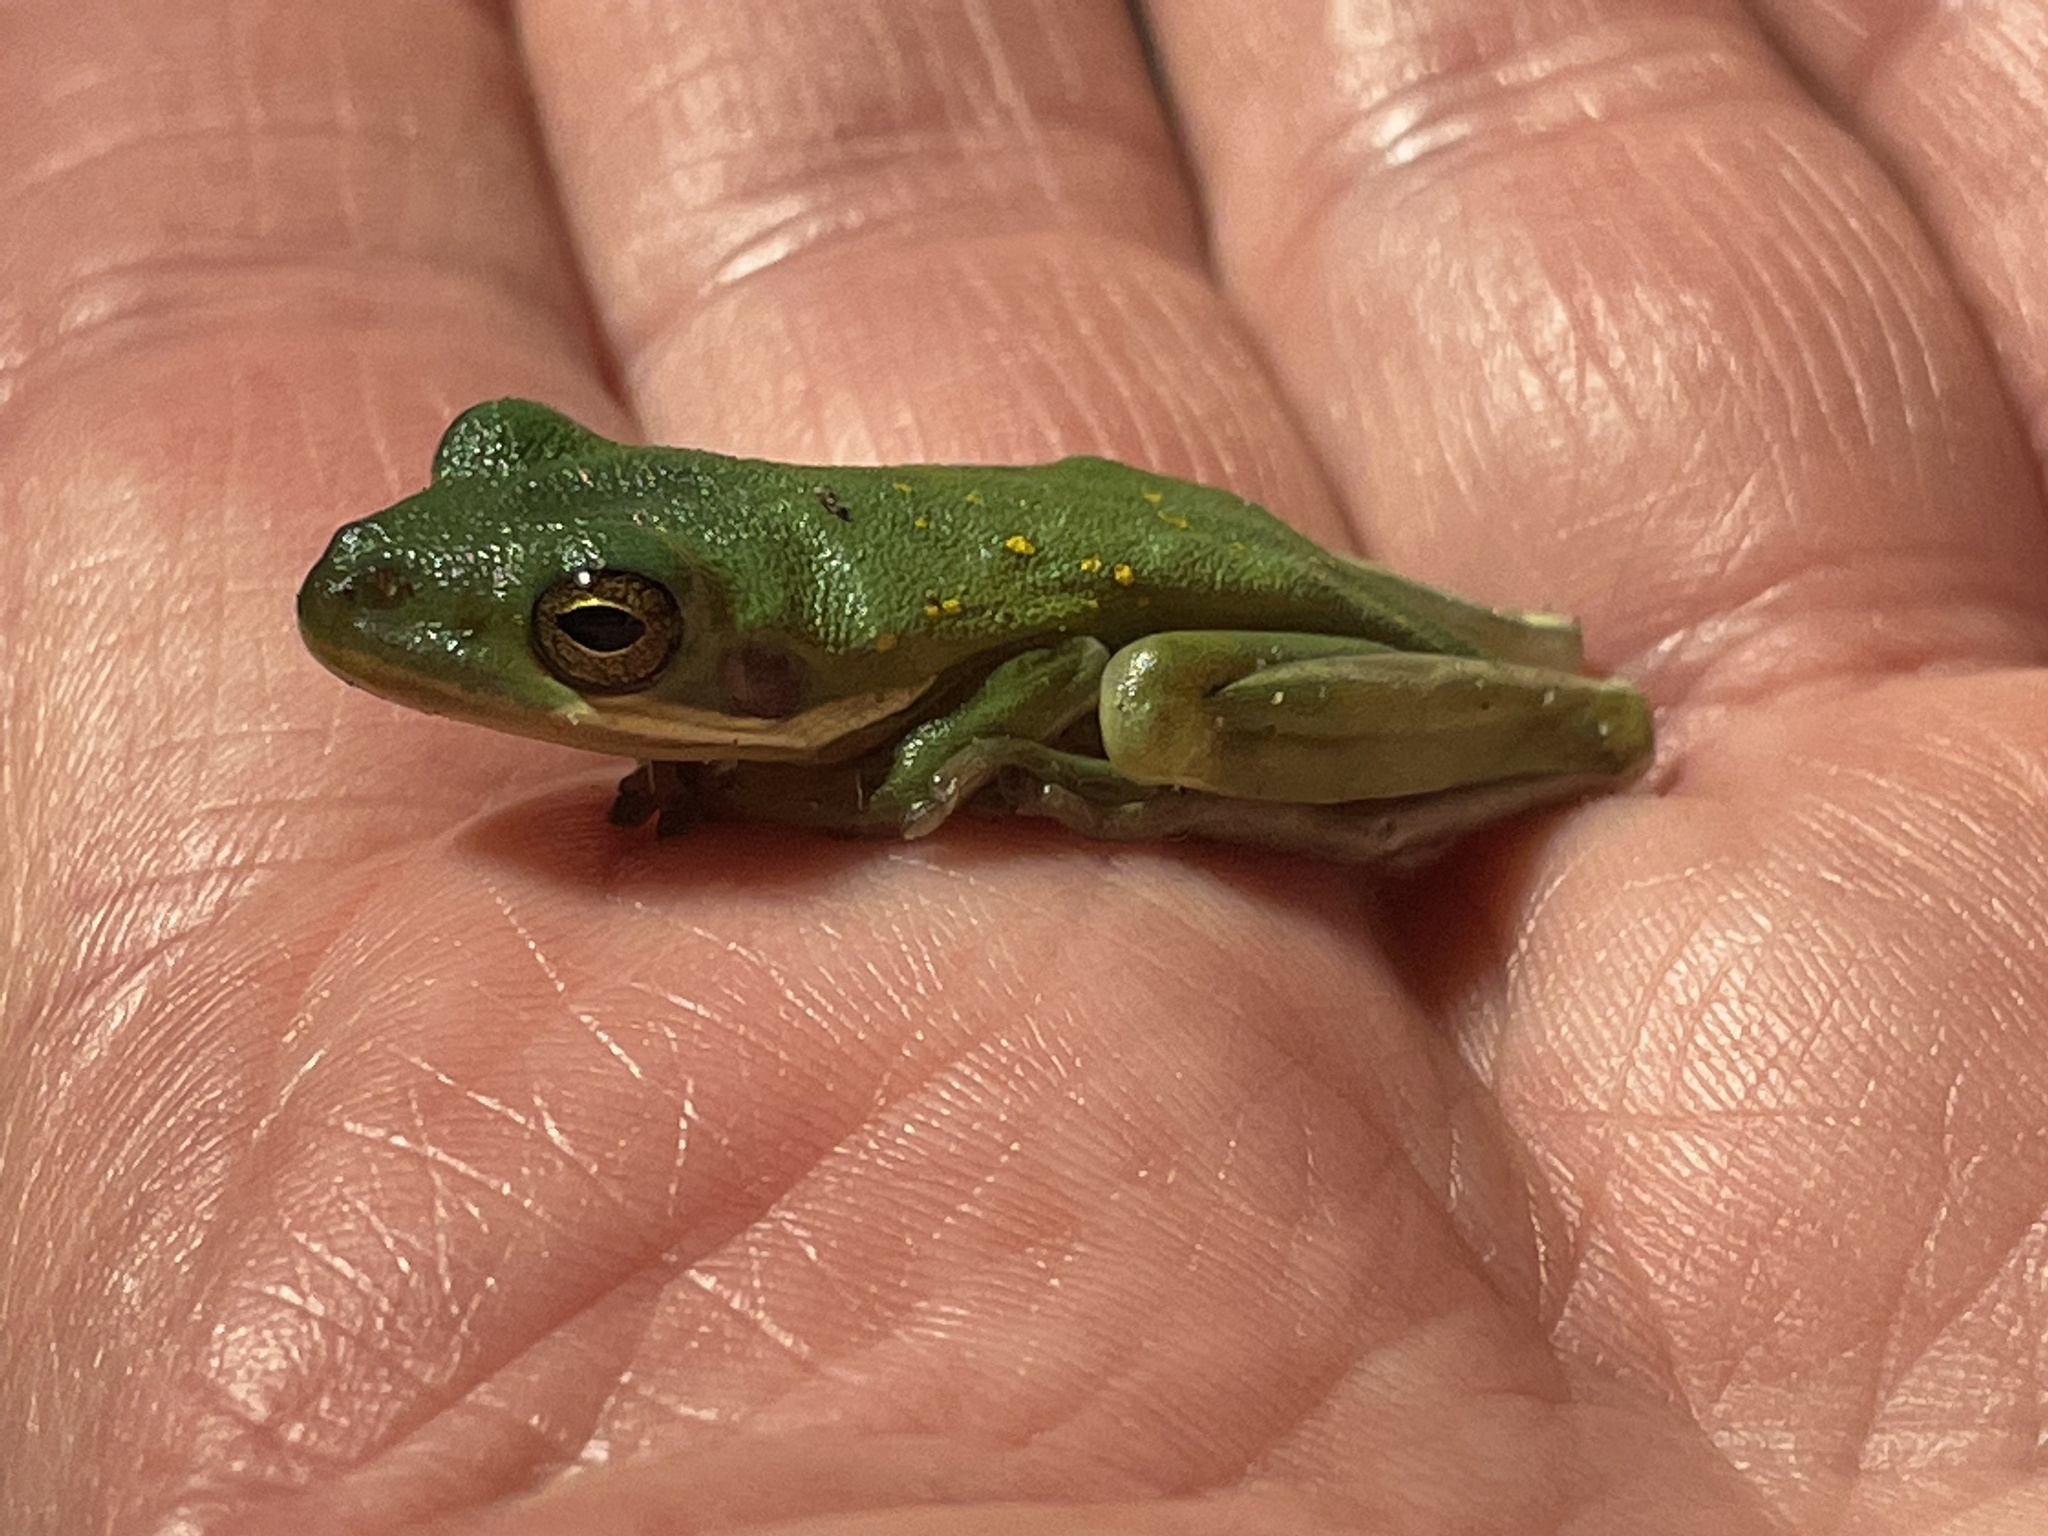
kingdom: Animalia
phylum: Chordata
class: Amphibia
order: Anura
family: Hylidae
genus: Dryophytes
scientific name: Dryophytes cinereus
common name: Green treefrog
